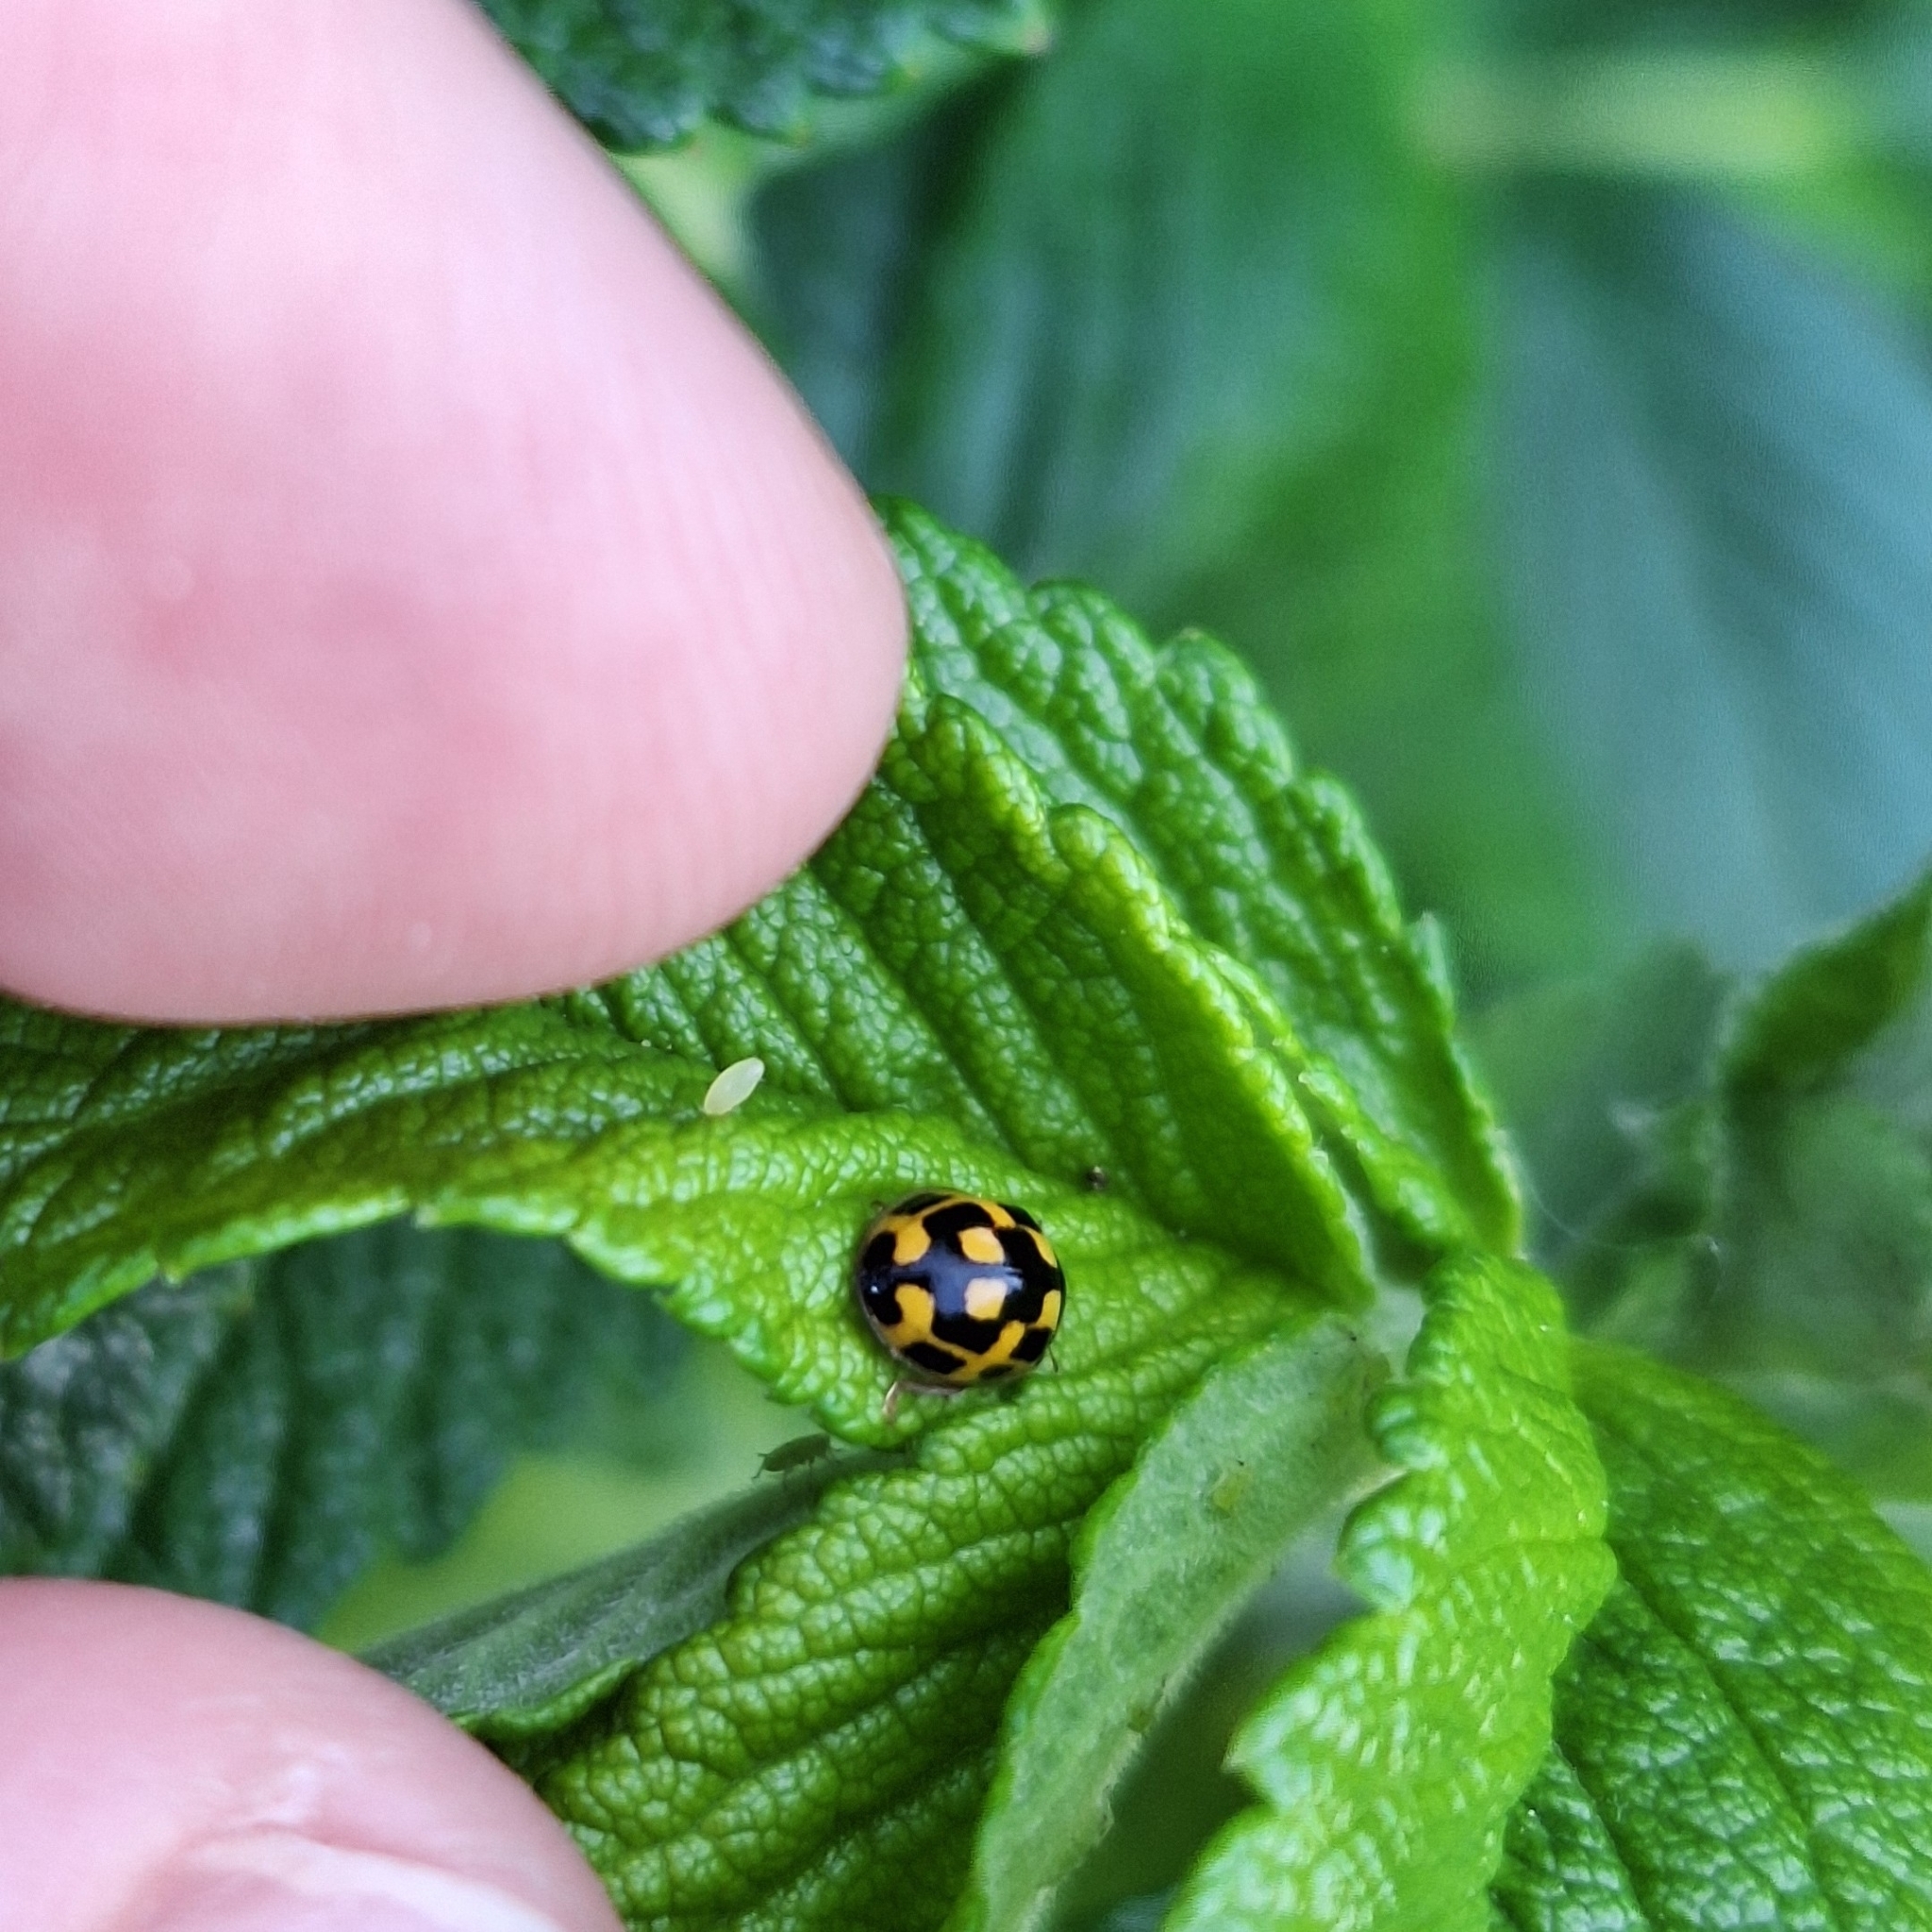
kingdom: Animalia
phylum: Arthropoda
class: Insecta
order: Coleoptera
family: Coccinellidae
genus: Propylaea
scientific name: Propylaea quatuordecimpunctata
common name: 14-spotted ladybird beetle
